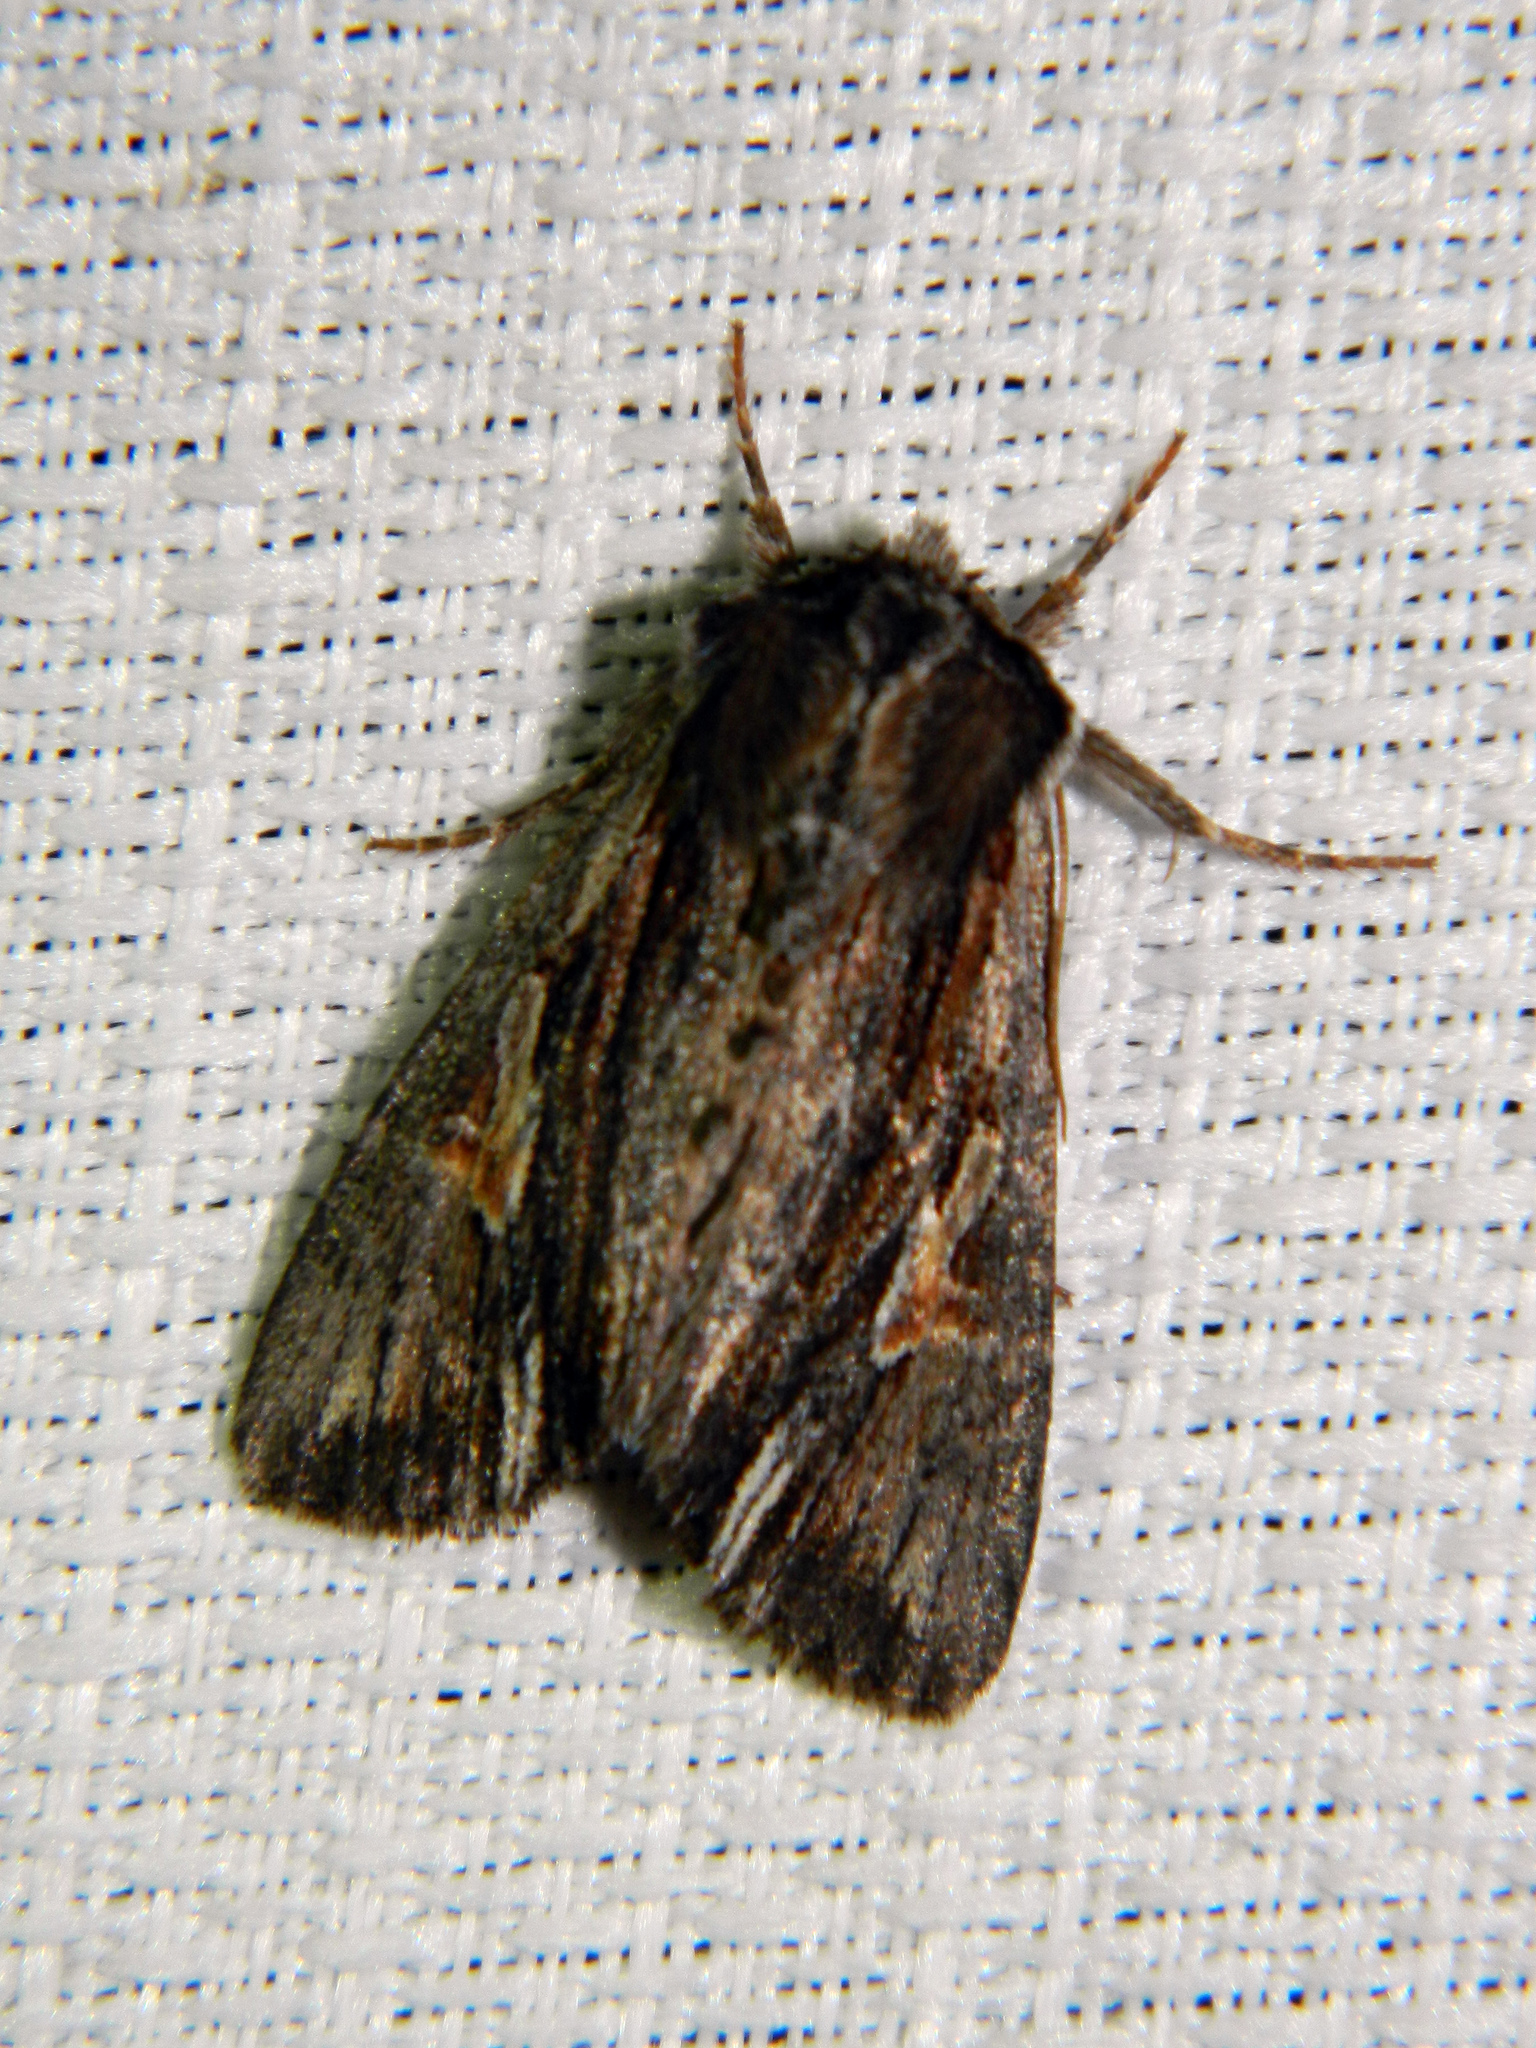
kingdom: Animalia
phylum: Arthropoda
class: Insecta
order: Lepidoptera
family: Noctuidae
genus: Achatia
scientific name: Achatia evicta
